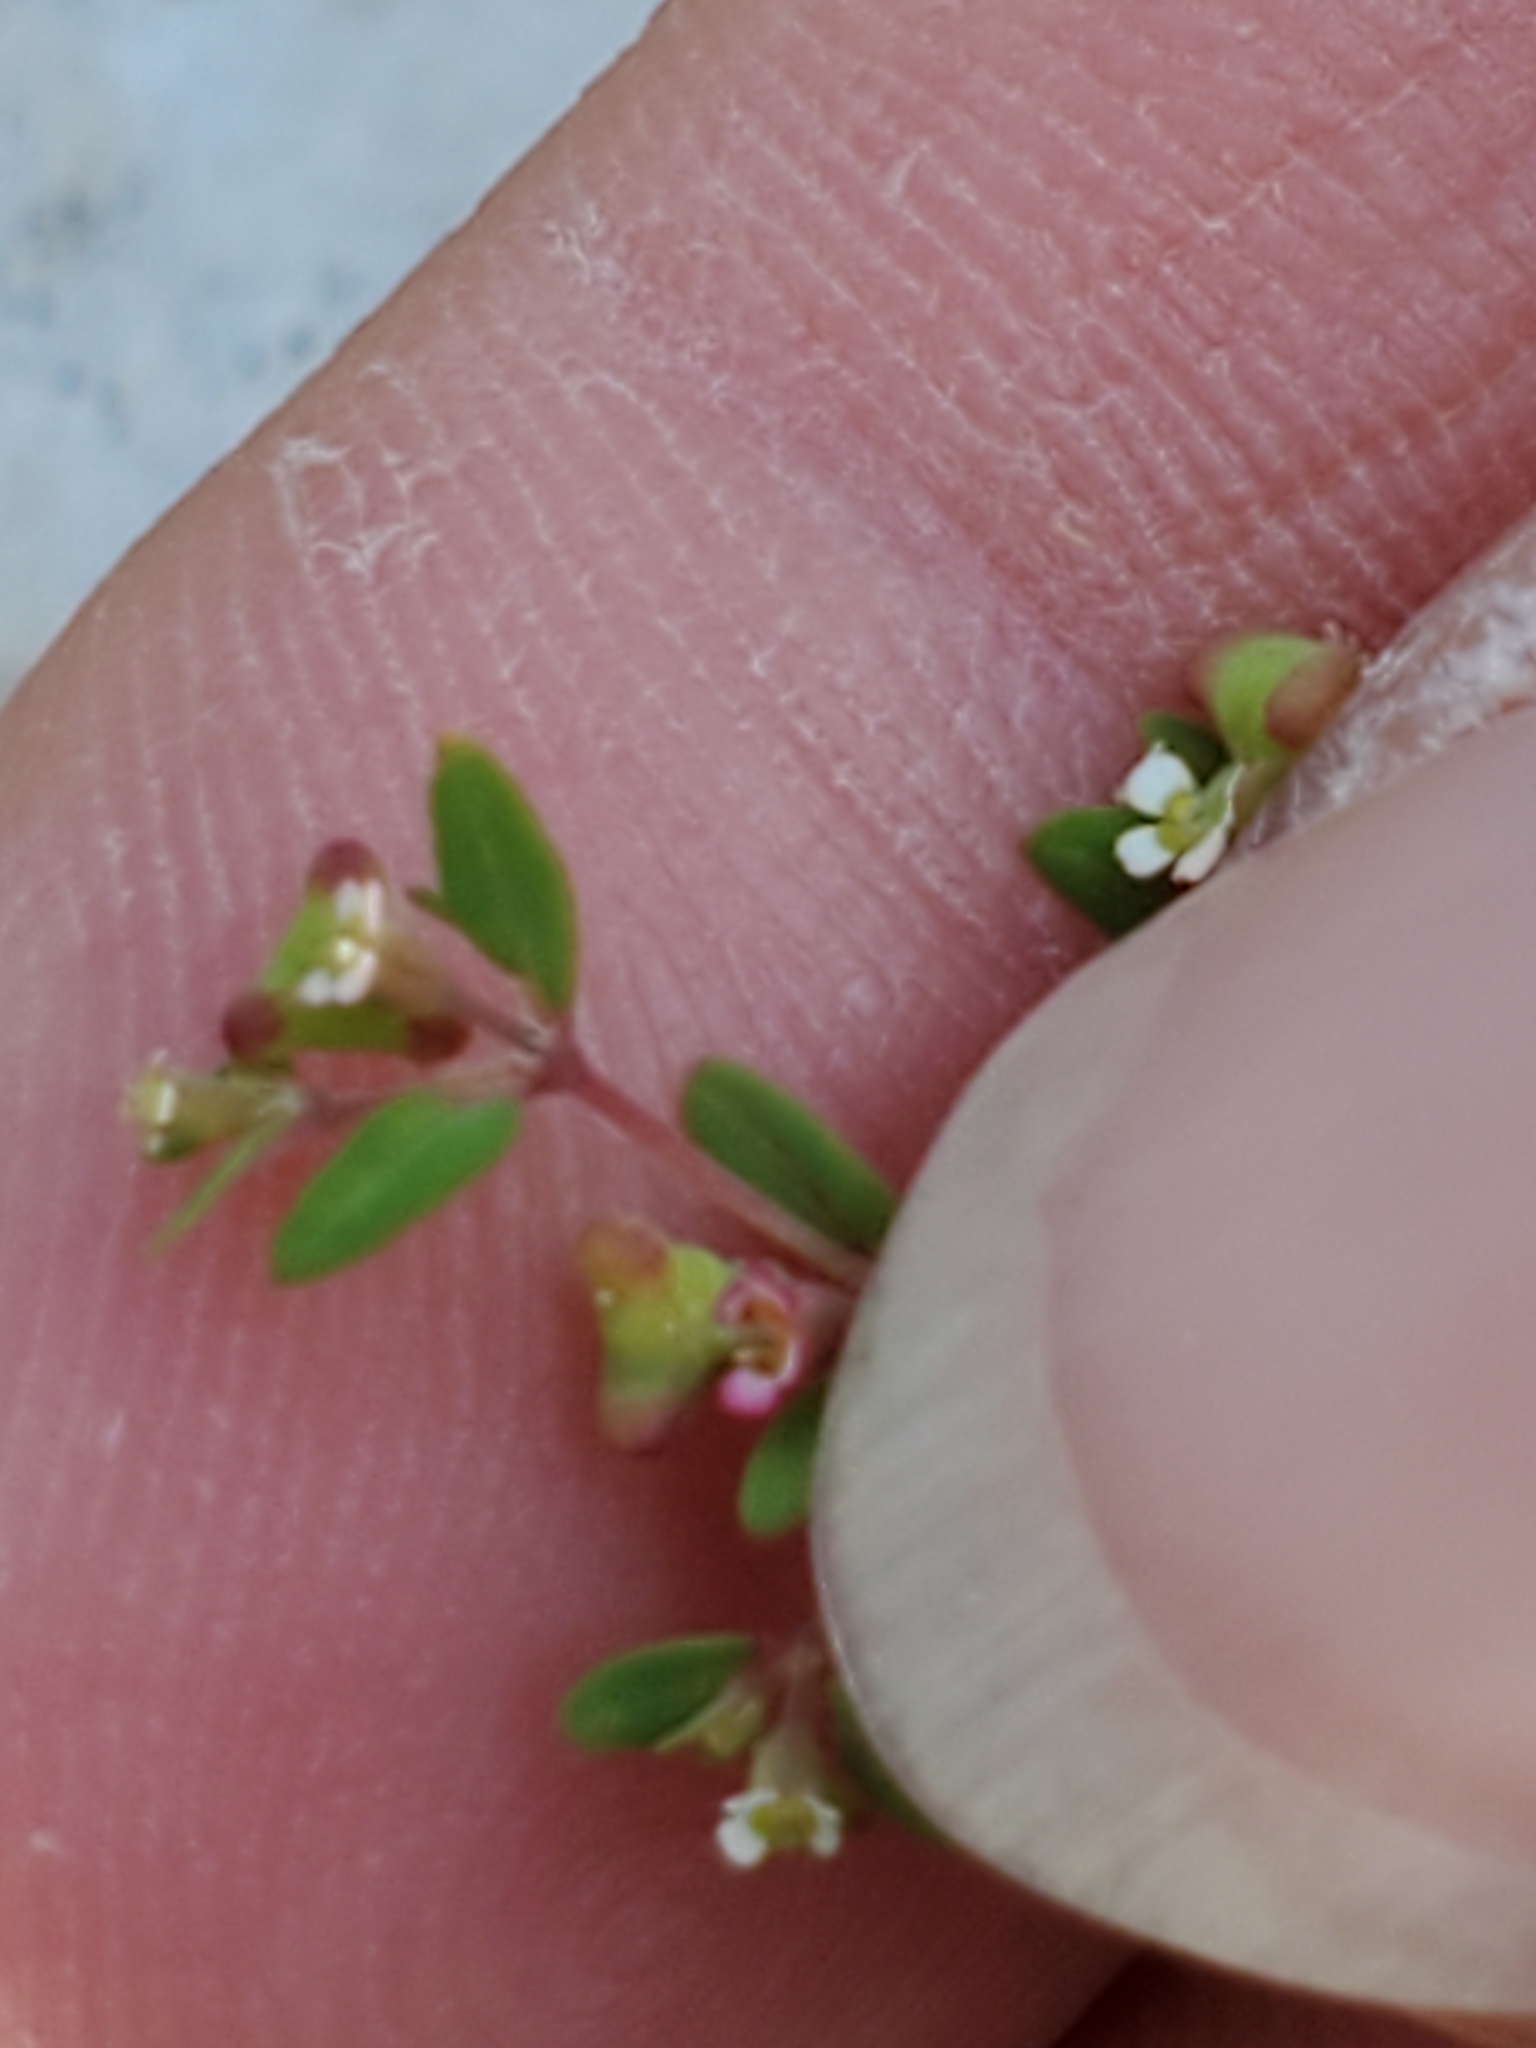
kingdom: Plantae
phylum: Tracheophyta
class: Magnoliopsida
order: Malpighiales
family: Euphorbiaceae
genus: Euphorbia
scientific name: Euphorbia villifera
